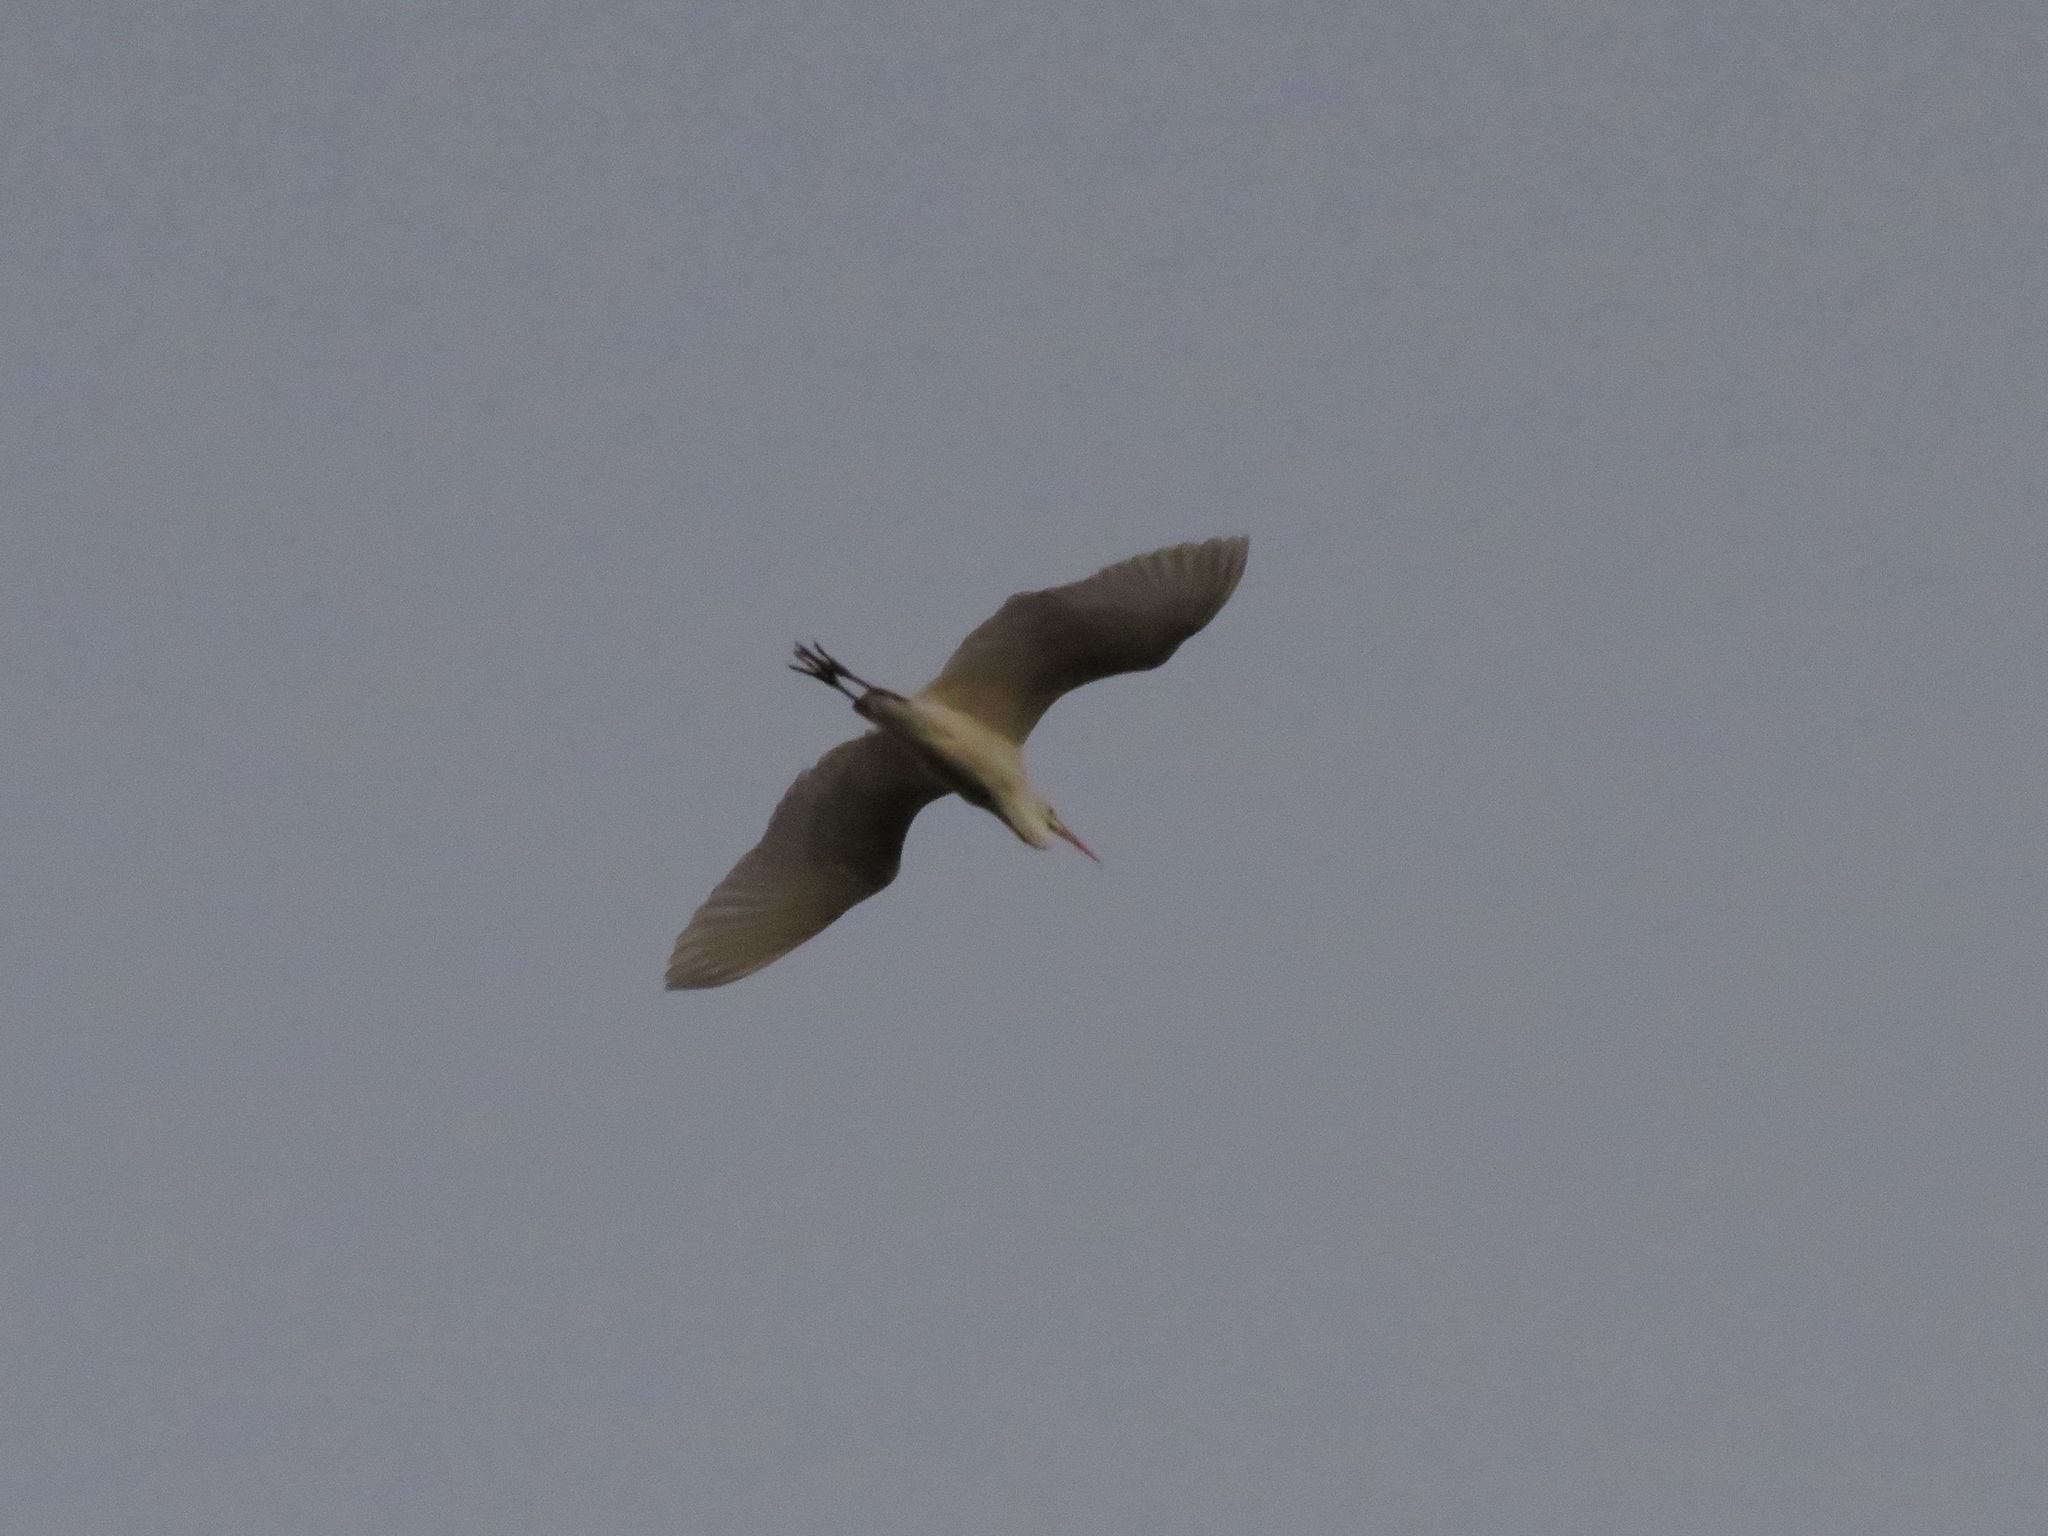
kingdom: Animalia
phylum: Chordata
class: Aves
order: Pelecaniformes
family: Ardeidae
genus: Ardea
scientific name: Ardea alba
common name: Great egret
